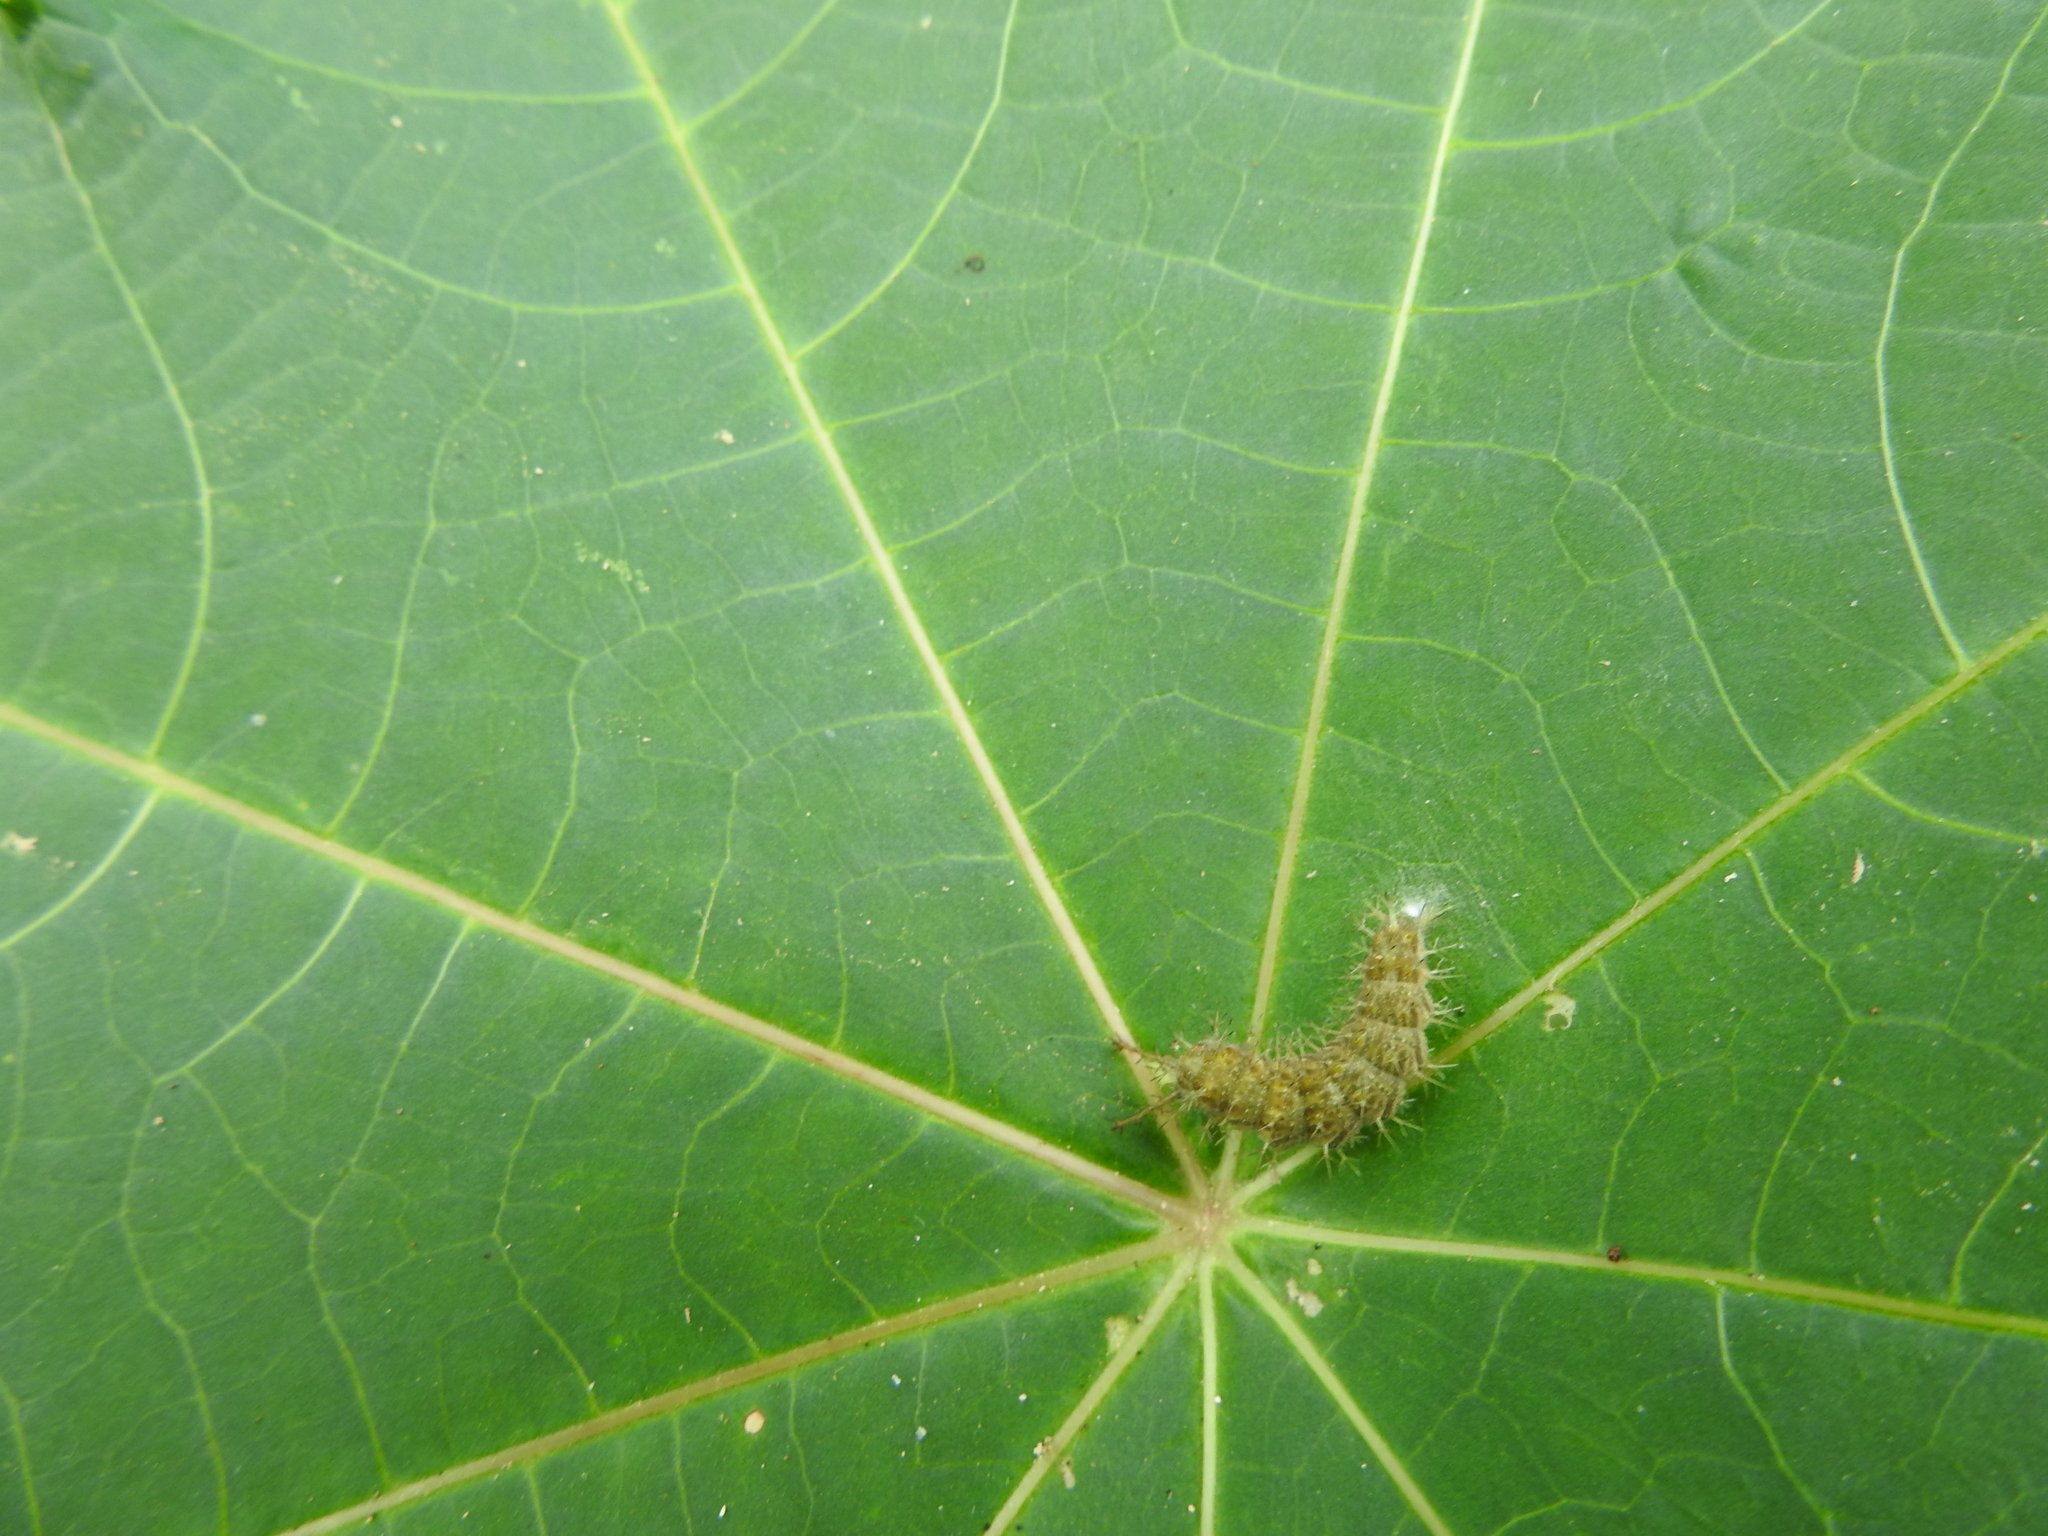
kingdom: Animalia
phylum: Arthropoda
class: Insecta
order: Lepidoptera
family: Nymphalidae
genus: Ariadne
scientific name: Ariadne merione
